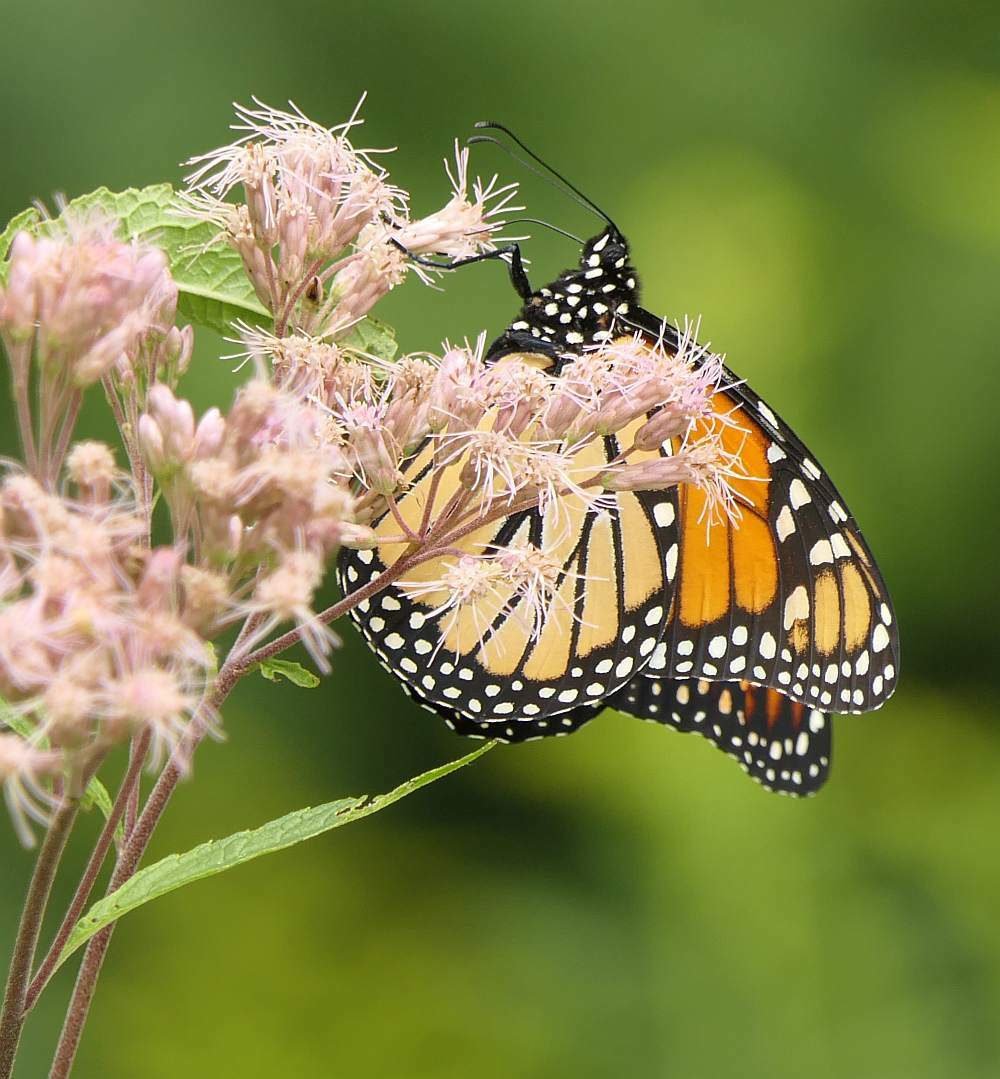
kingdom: Animalia
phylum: Arthropoda
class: Insecta
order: Lepidoptera
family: Nymphalidae
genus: Danaus
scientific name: Danaus plexippus
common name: Monarch
